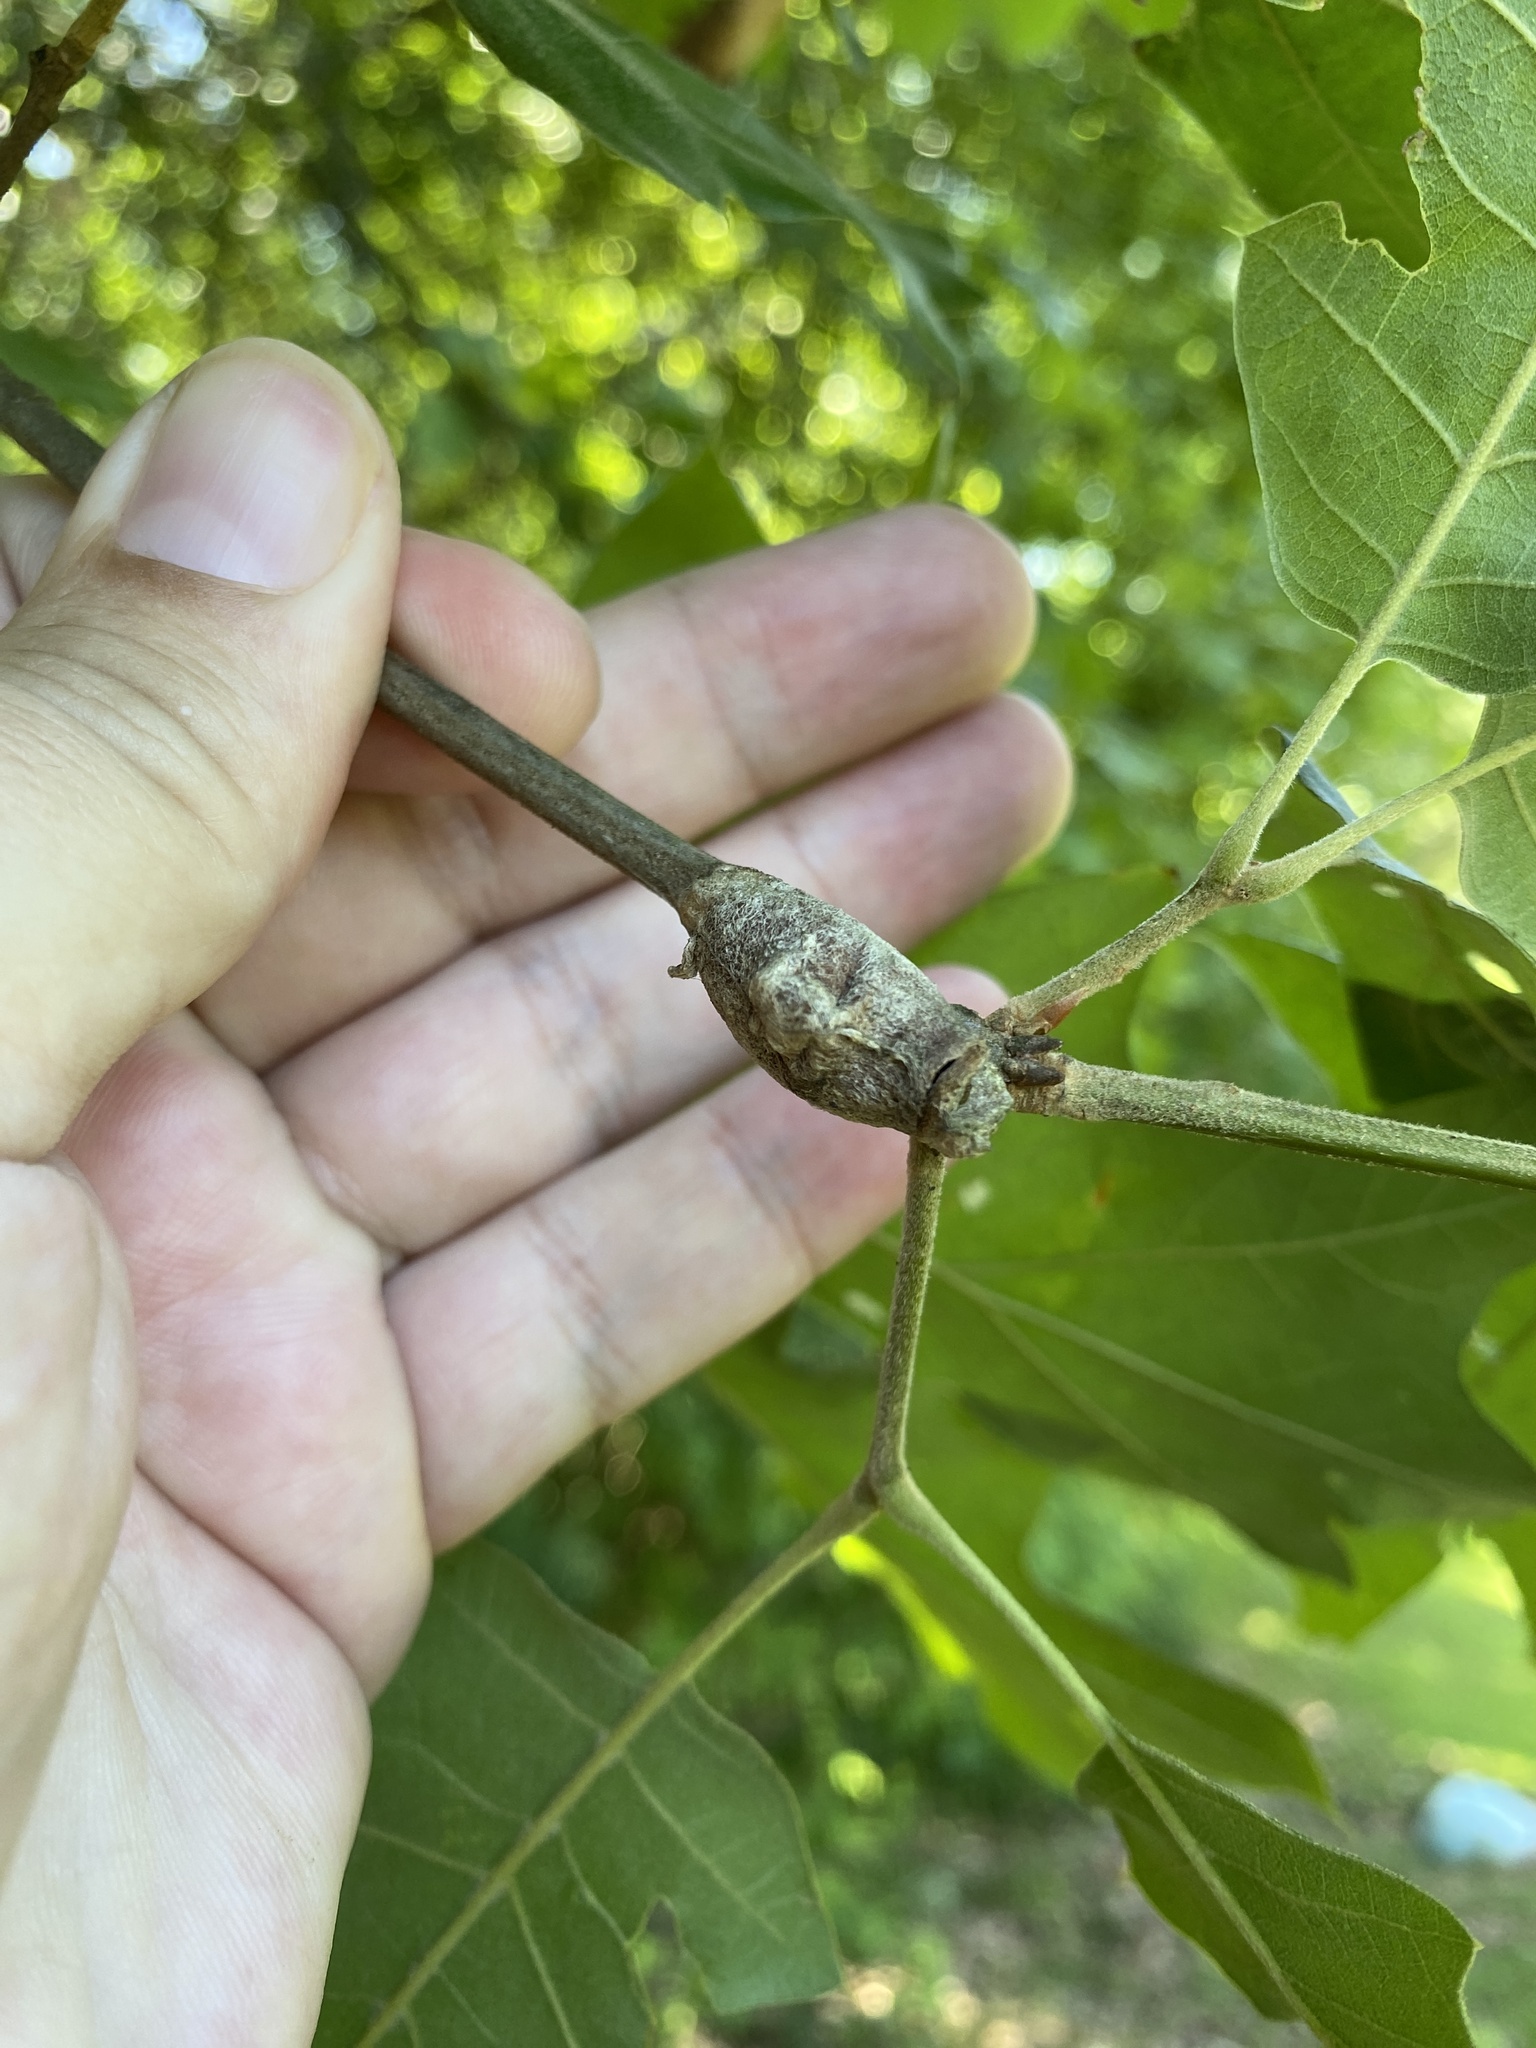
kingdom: Animalia
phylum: Arthropoda
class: Insecta
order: Lepidoptera
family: Megalopygidae
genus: Megalopyge
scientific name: Megalopyge opercularis
